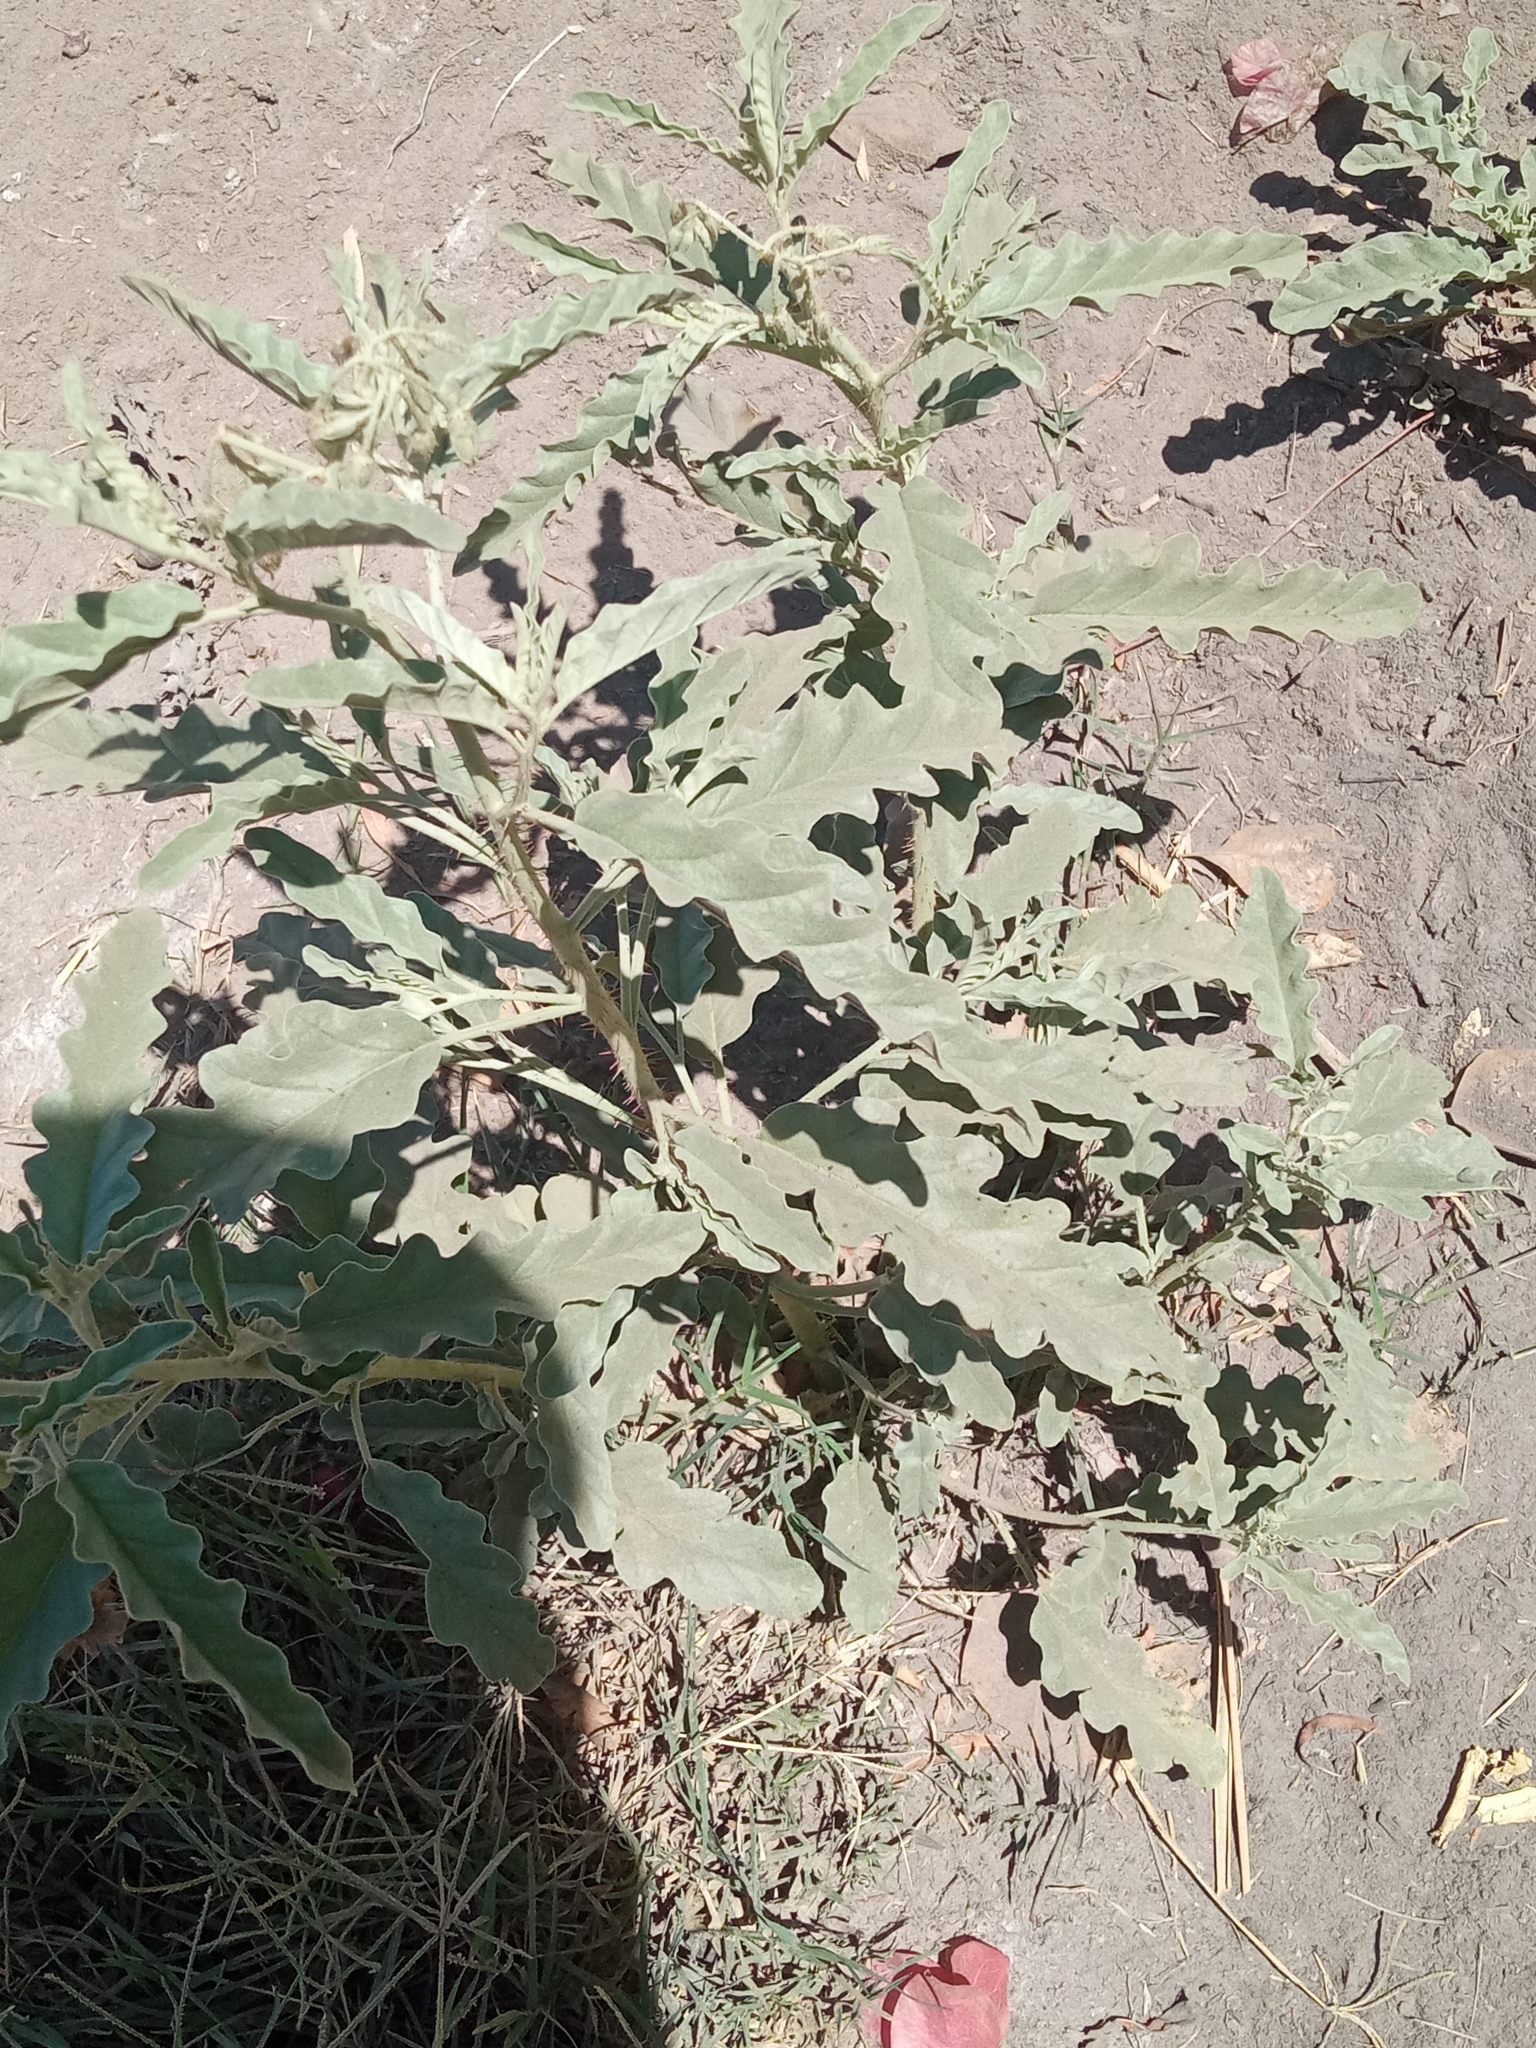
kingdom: Plantae
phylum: Tracheophyta
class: Magnoliopsida
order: Solanales
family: Solanaceae
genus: Solanum
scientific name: Solanum elaeagnifolium
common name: Silverleaf nightshade
